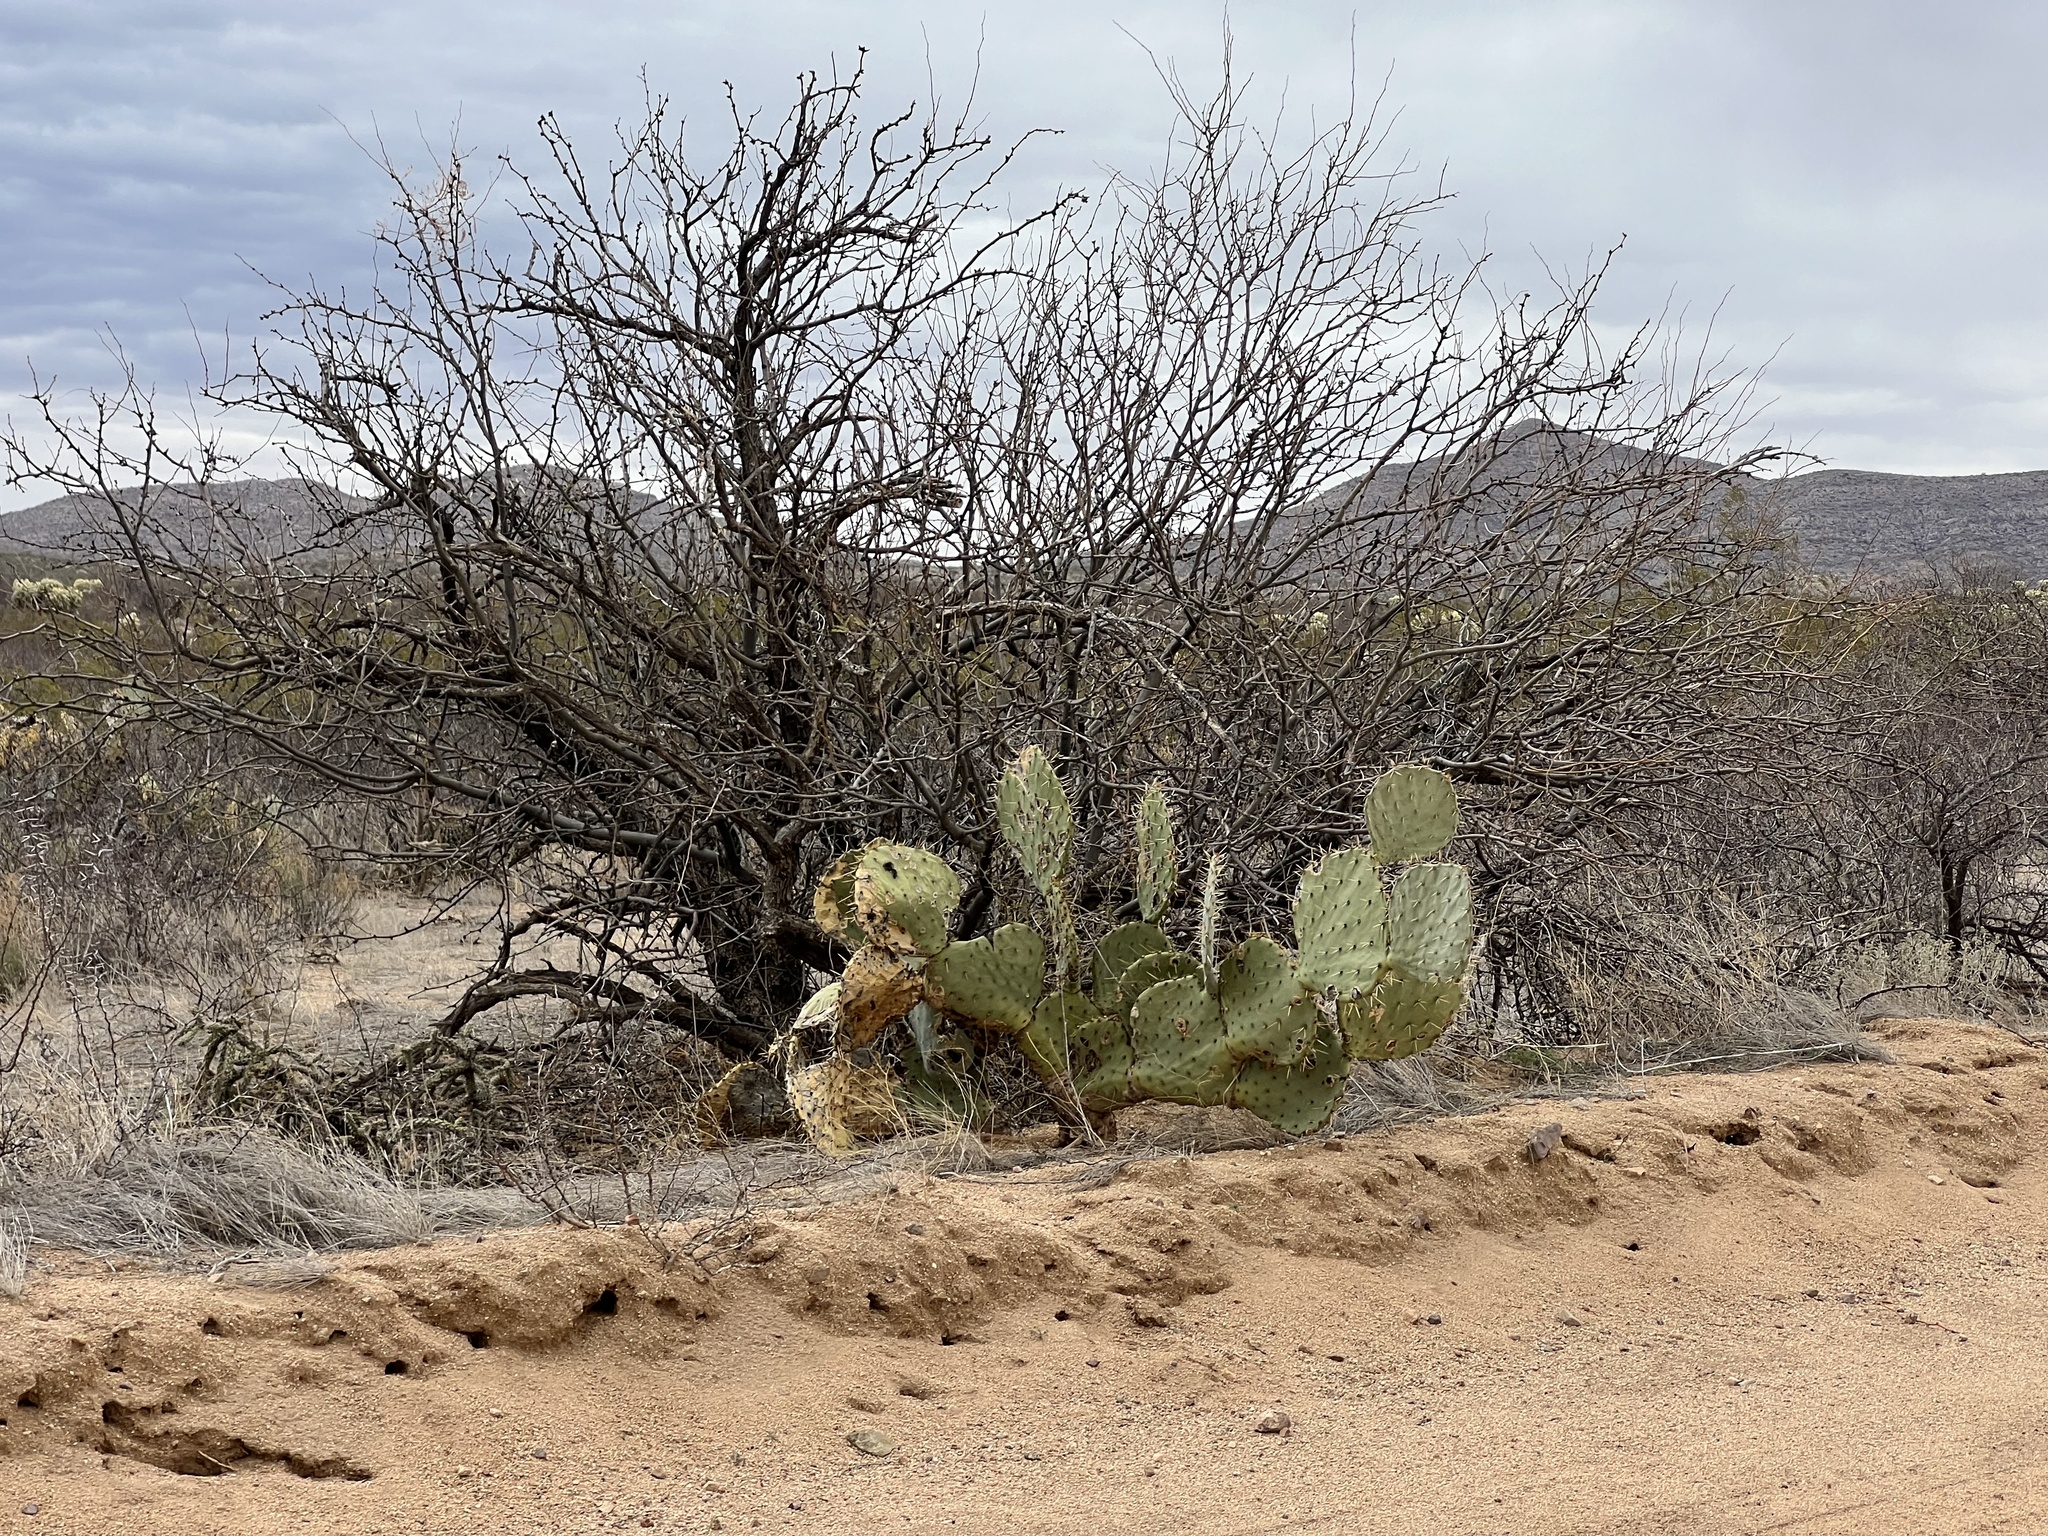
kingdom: Plantae
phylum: Tracheophyta
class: Magnoliopsida
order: Caryophyllales
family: Cactaceae
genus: Opuntia
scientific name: Opuntia engelmannii
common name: Cactus-apple
